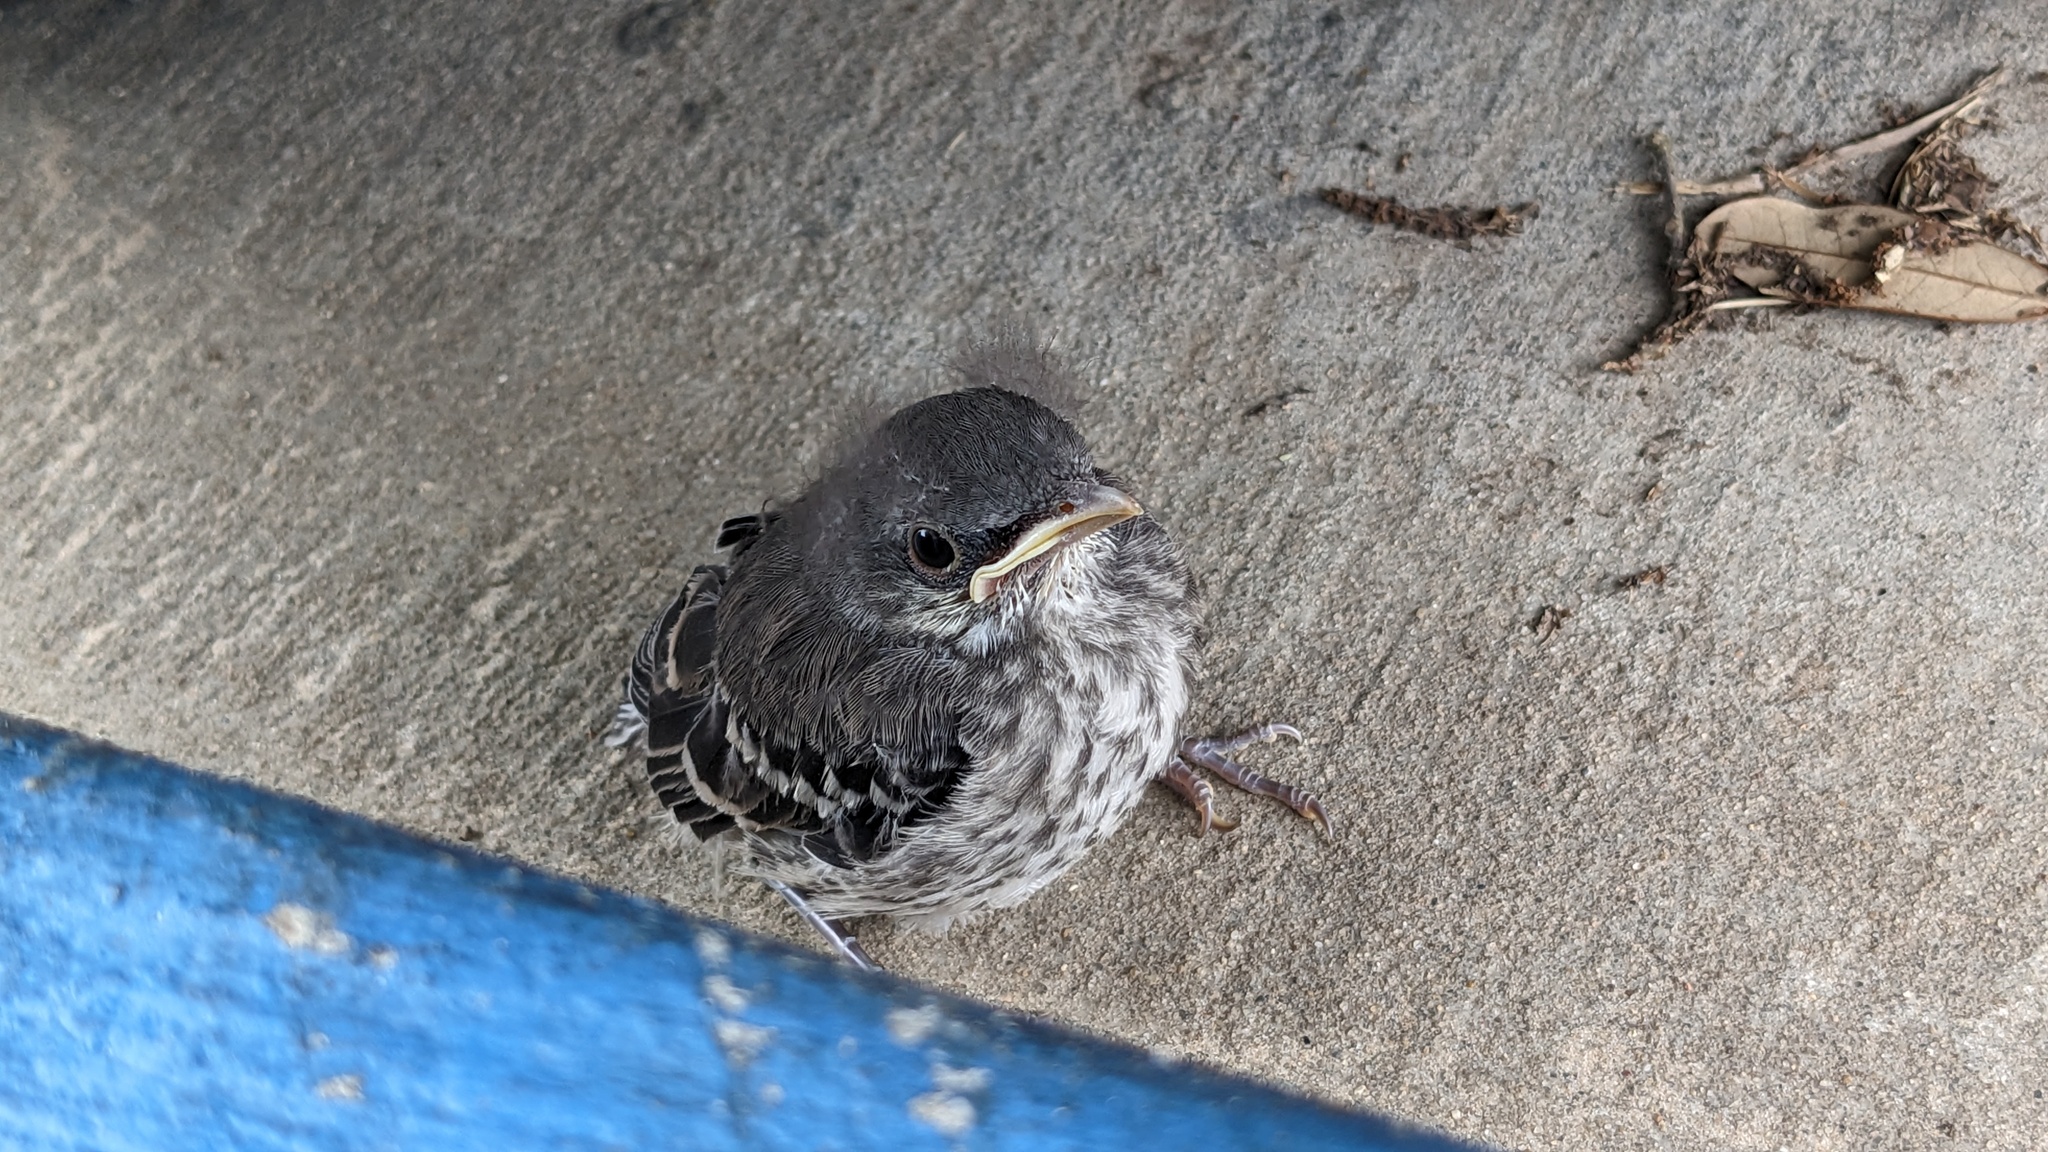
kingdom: Animalia
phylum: Chordata
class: Aves
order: Passeriformes
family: Mimidae
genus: Mimus
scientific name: Mimus polyglottos
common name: Northern mockingbird
